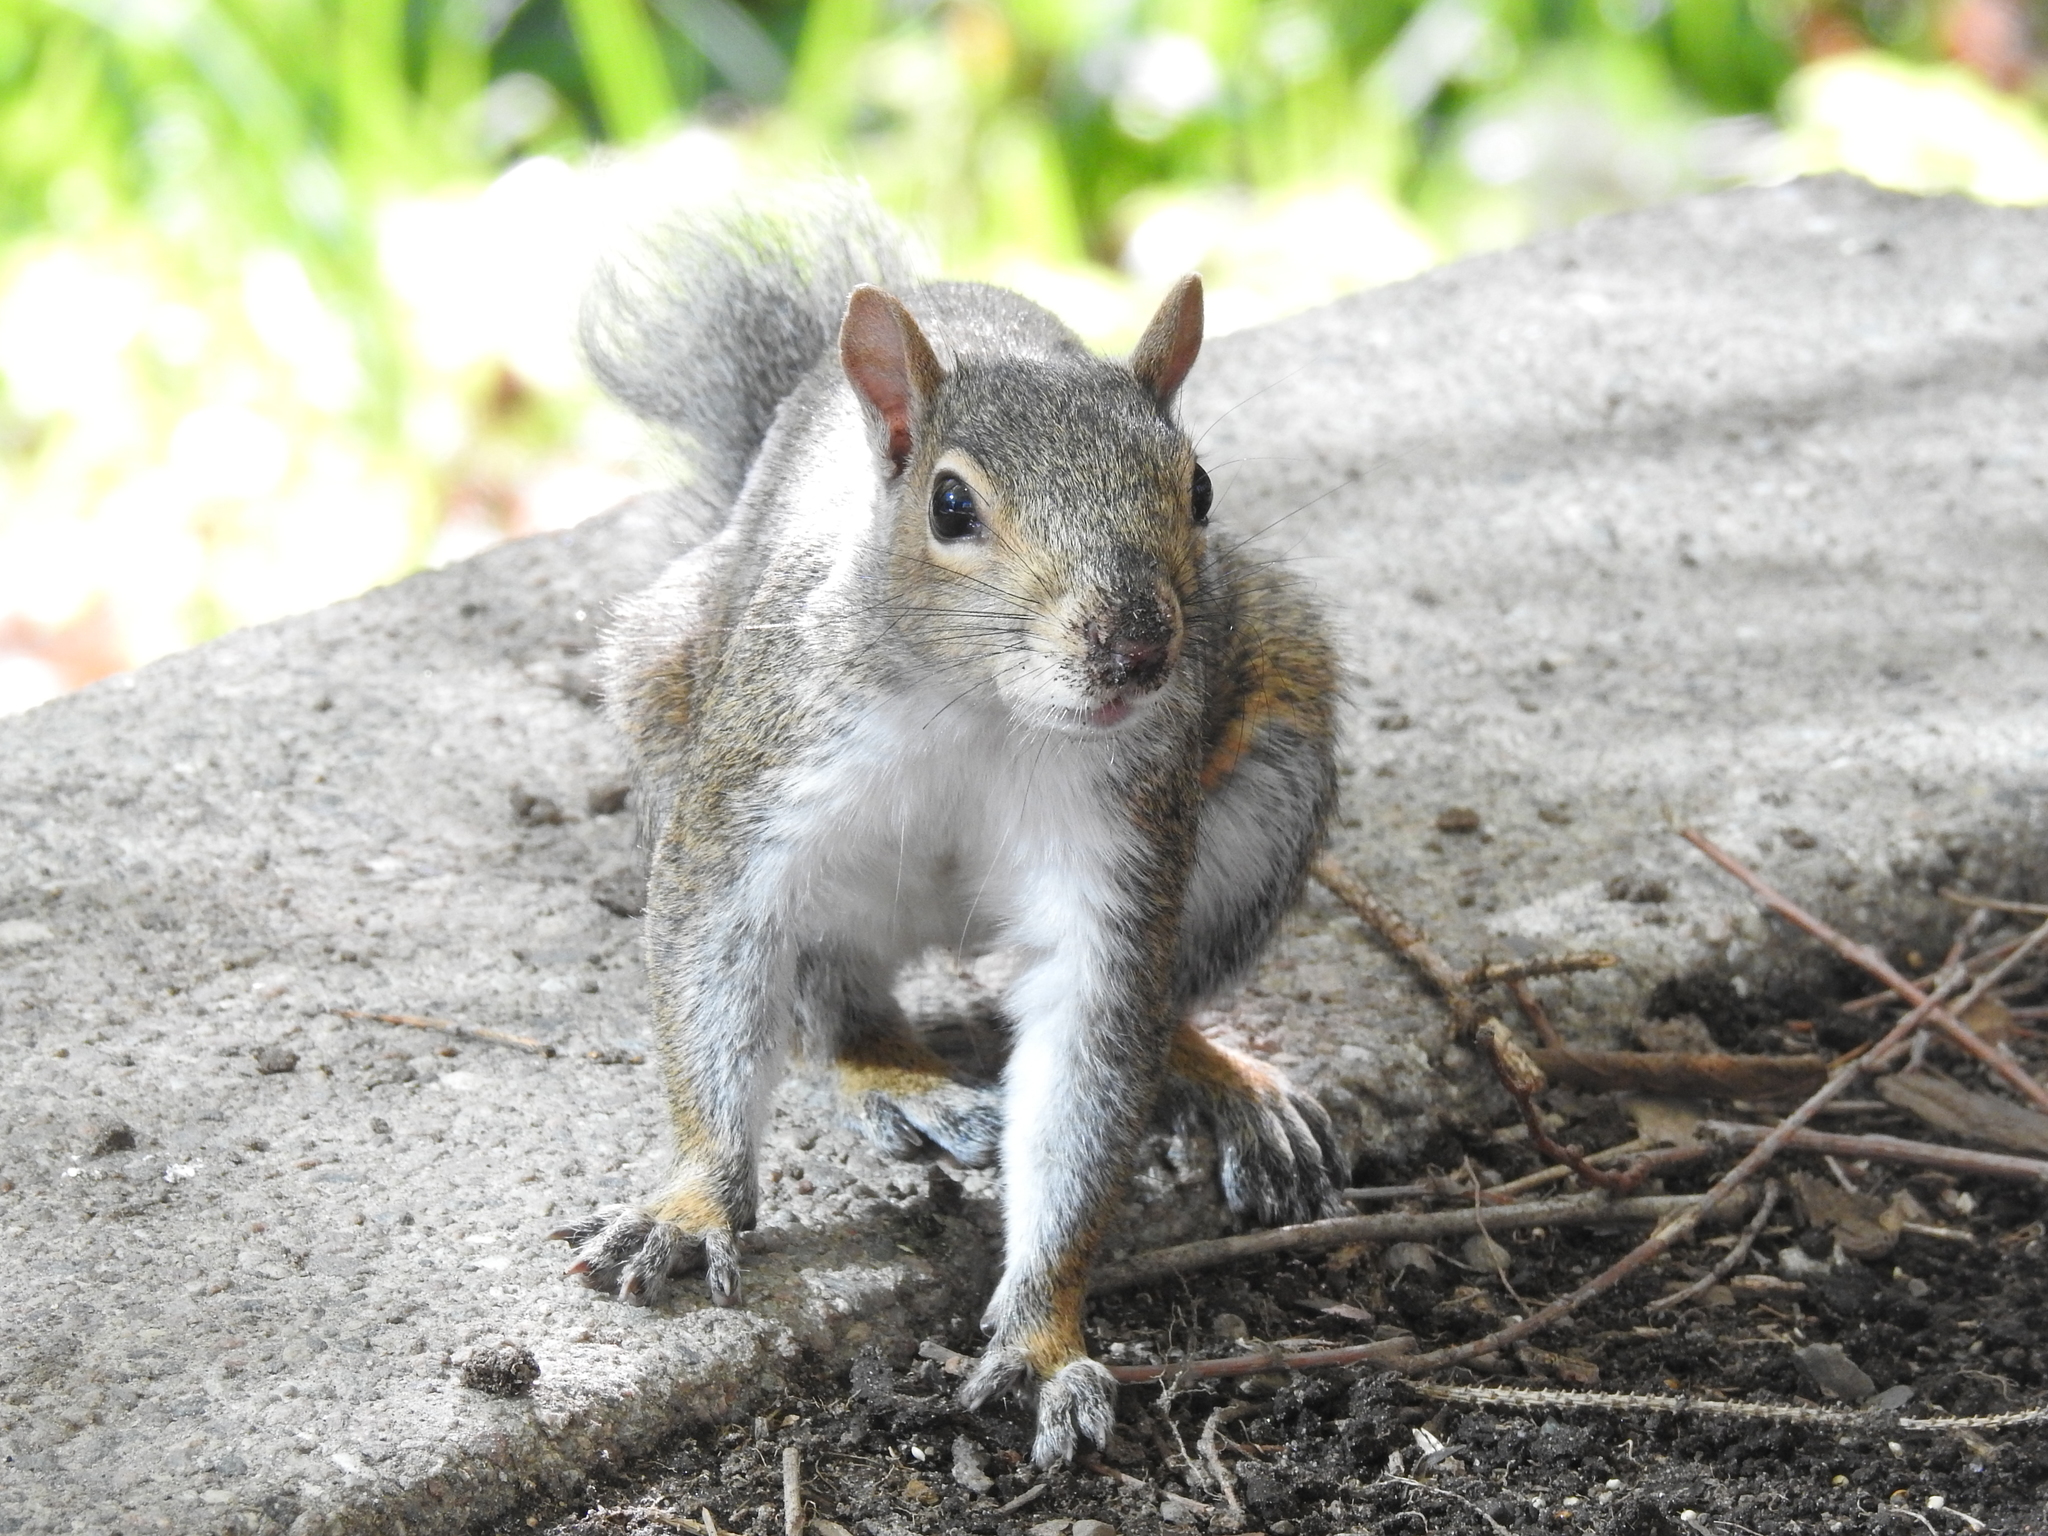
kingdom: Animalia
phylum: Chordata
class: Mammalia
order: Rodentia
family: Sciuridae
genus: Sciurus
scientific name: Sciurus carolinensis
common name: Eastern gray squirrel
